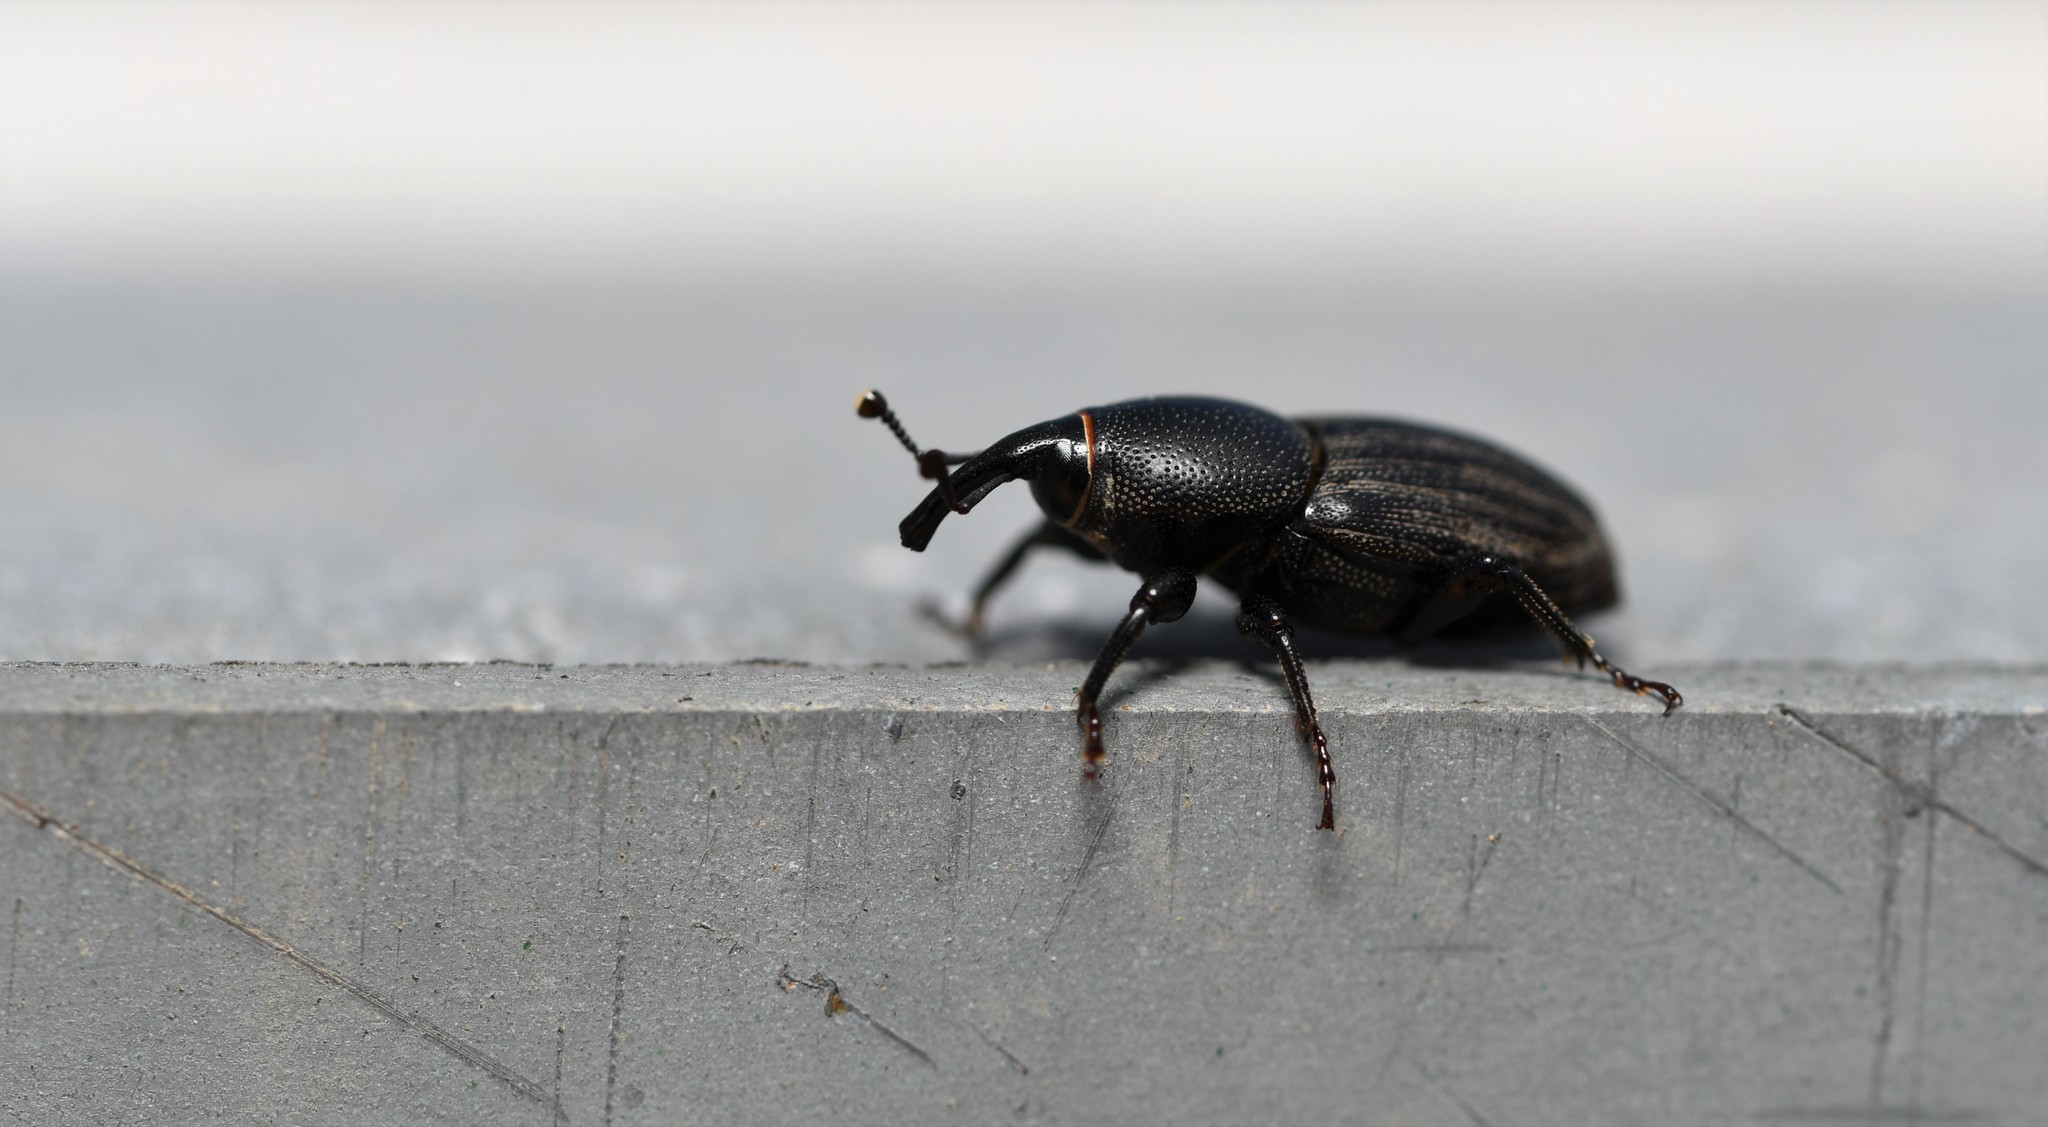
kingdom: Animalia
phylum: Arthropoda
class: Insecta
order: Coleoptera
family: Dryophthoridae
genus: Sphenophorus
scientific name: Sphenophorus striatopunctatus
